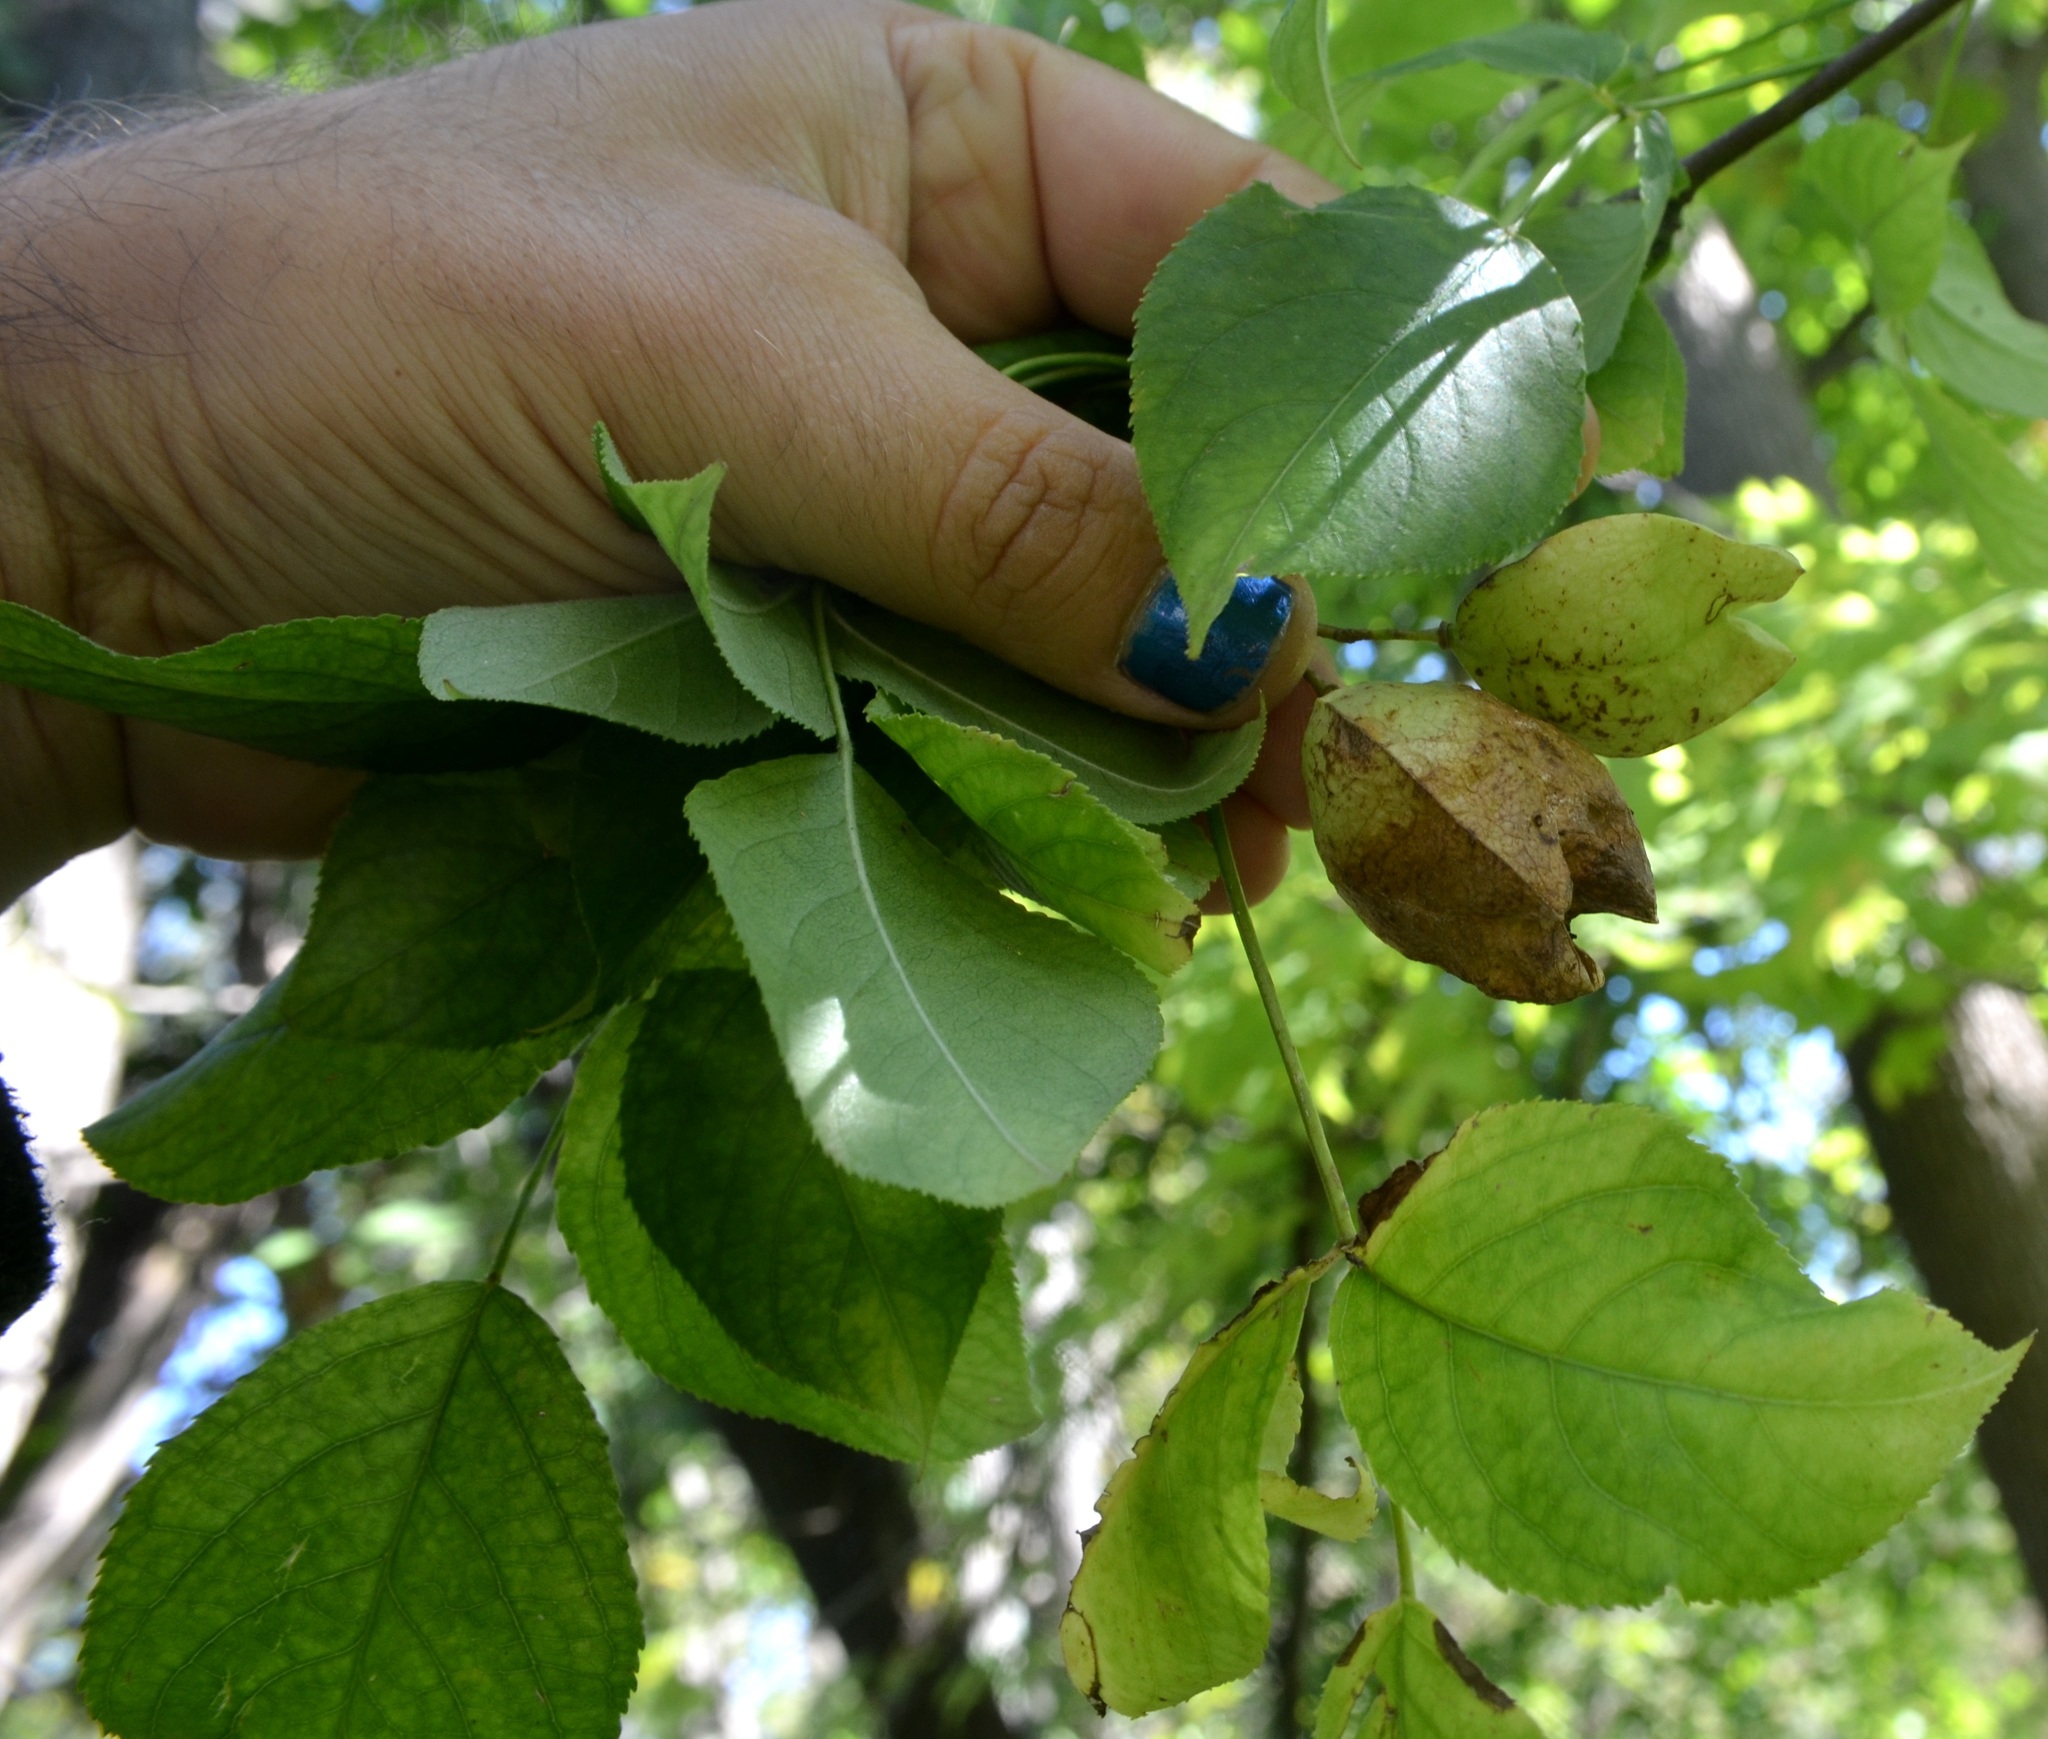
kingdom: Plantae
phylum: Tracheophyta
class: Magnoliopsida
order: Crossosomatales
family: Staphyleaceae
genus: Staphylea
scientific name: Staphylea trifolia
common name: American bladdernut
